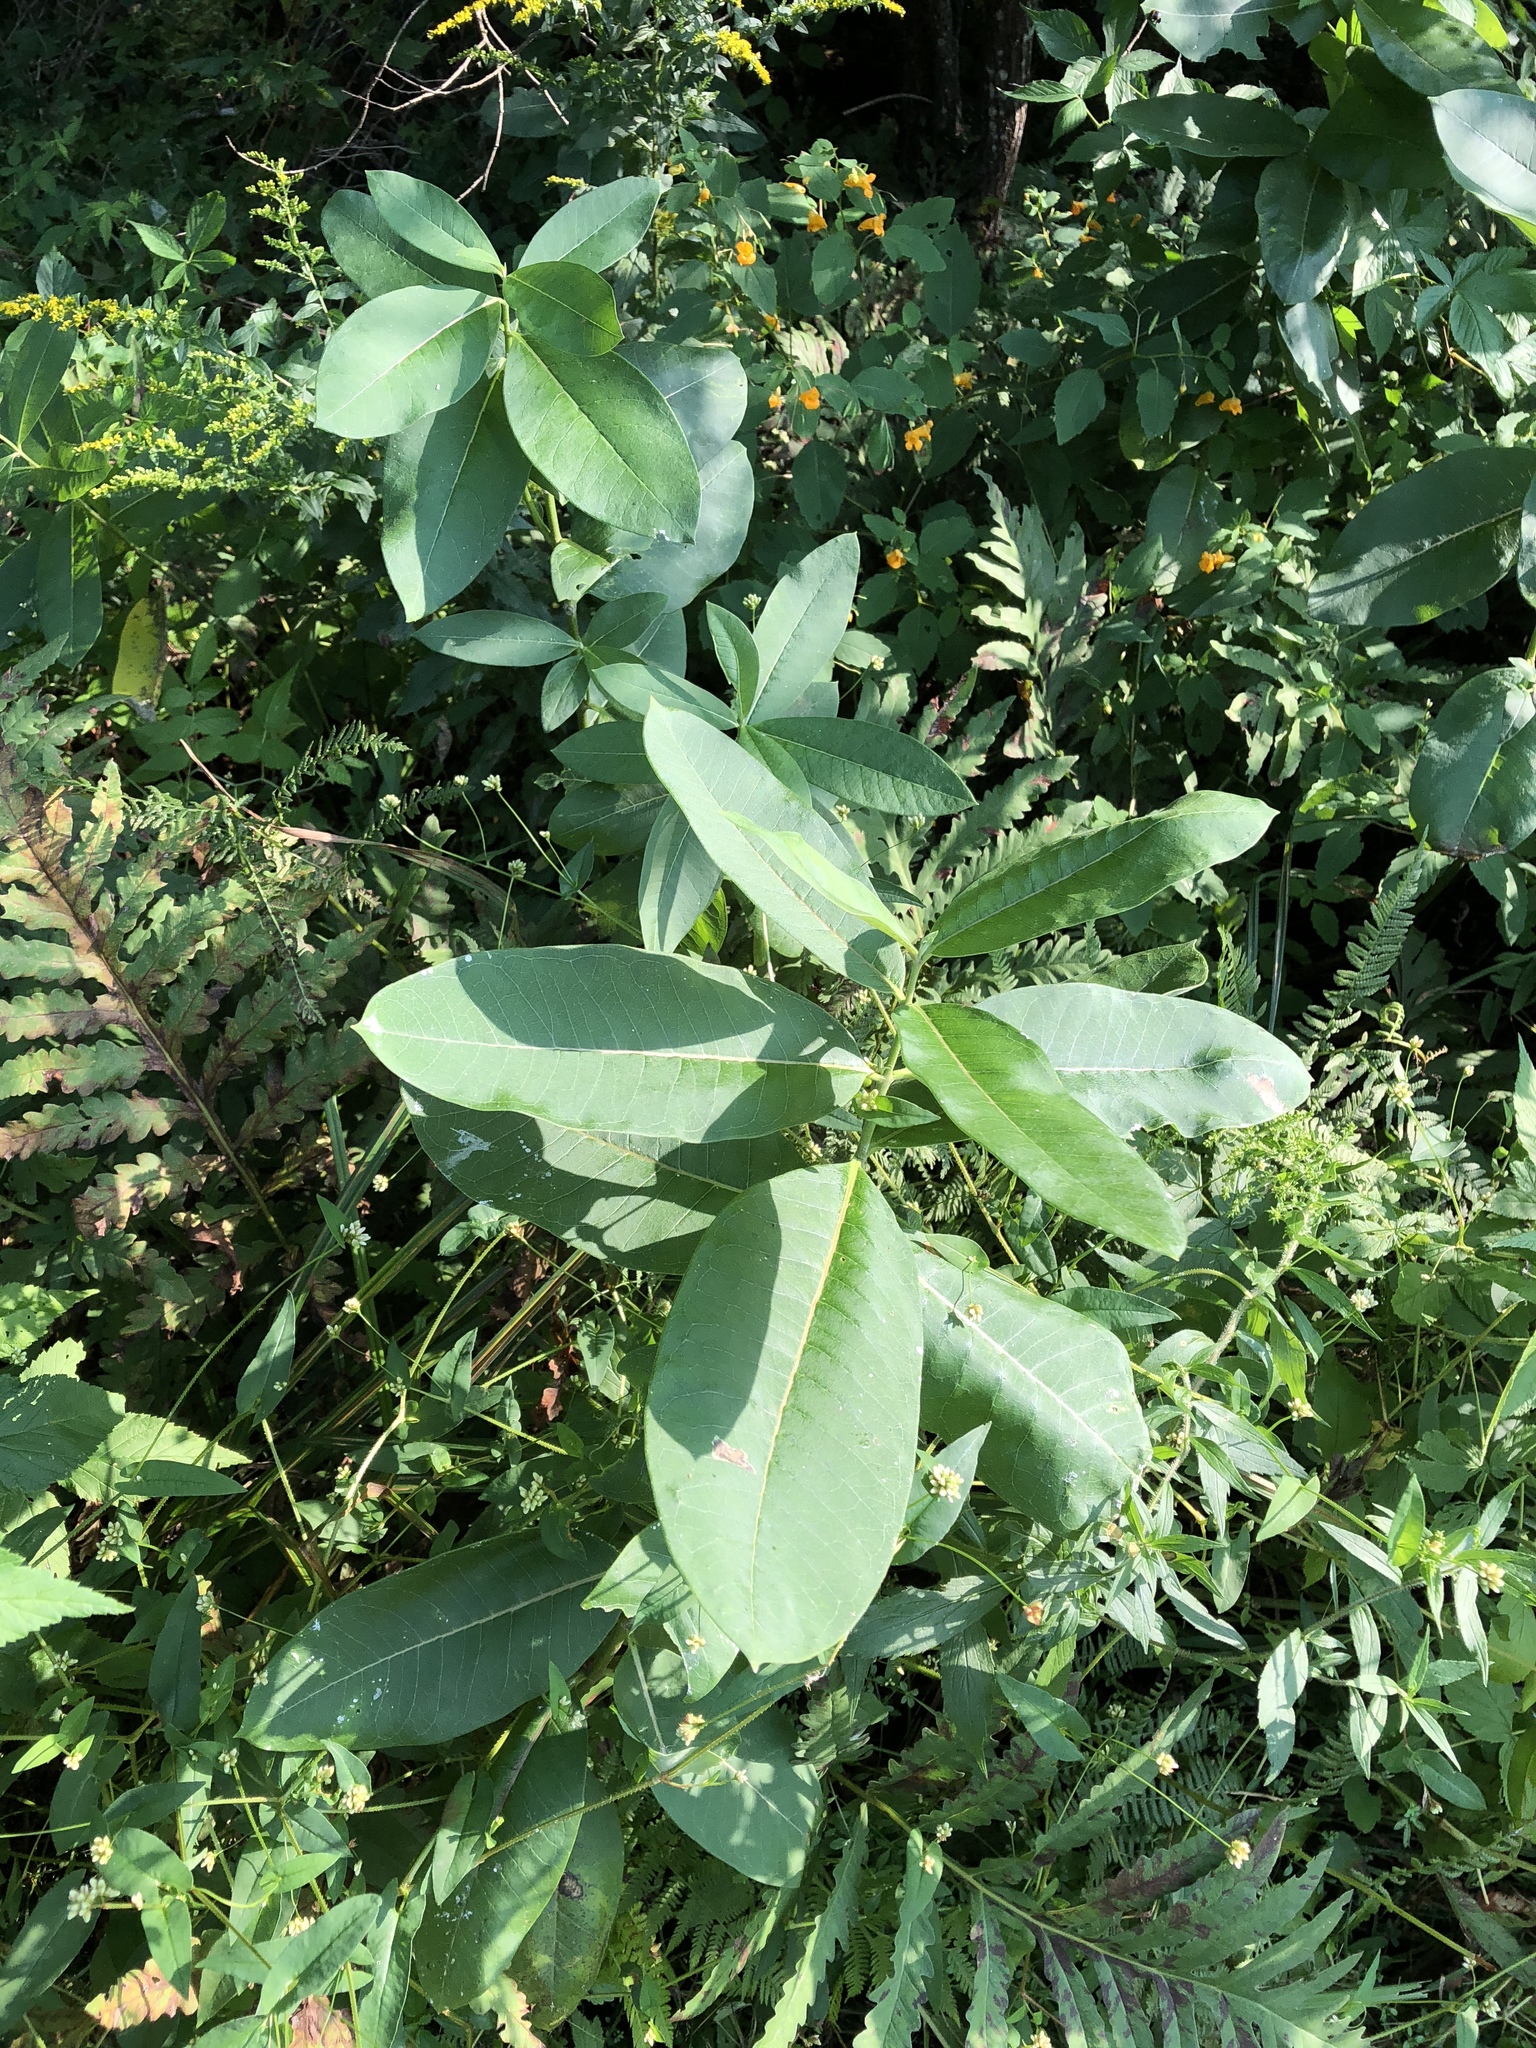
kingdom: Plantae
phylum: Tracheophyta
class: Magnoliopsida
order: Gentianales
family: Apocynaceae
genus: Asclepias
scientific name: Asclepias syriaca
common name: Common milkweed
